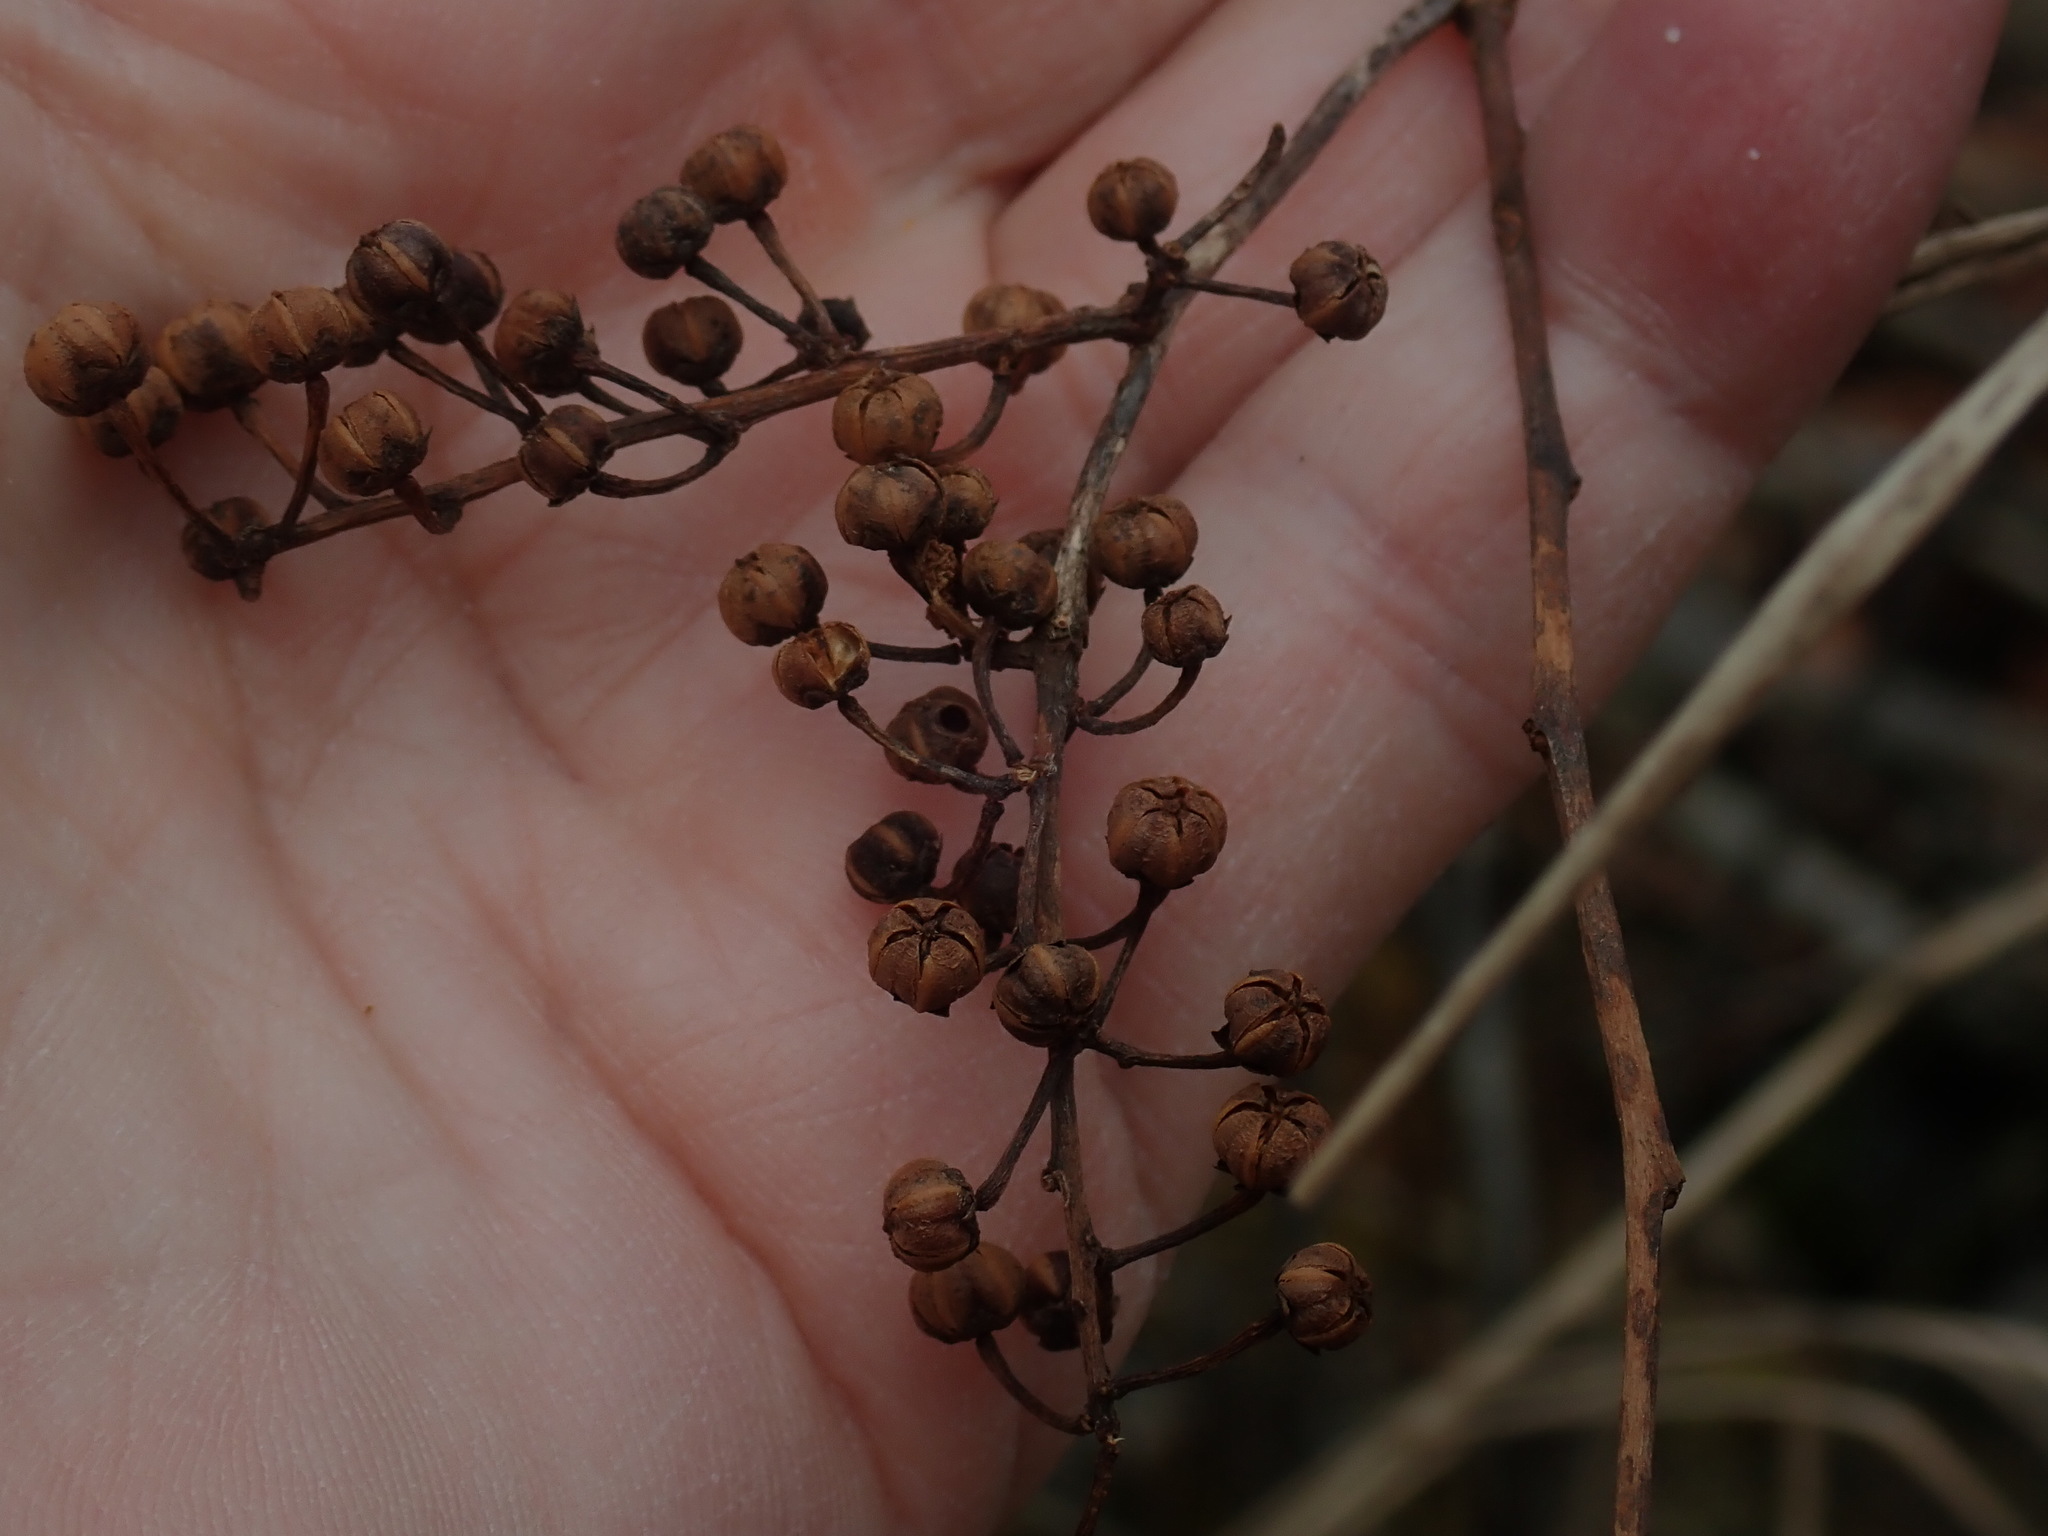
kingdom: Plantae
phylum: Tracheophyta
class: Magnoliopsida
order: Ericales
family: Ericaceae
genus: Lyonia
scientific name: Lyonia ligustrina
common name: Maleberry
